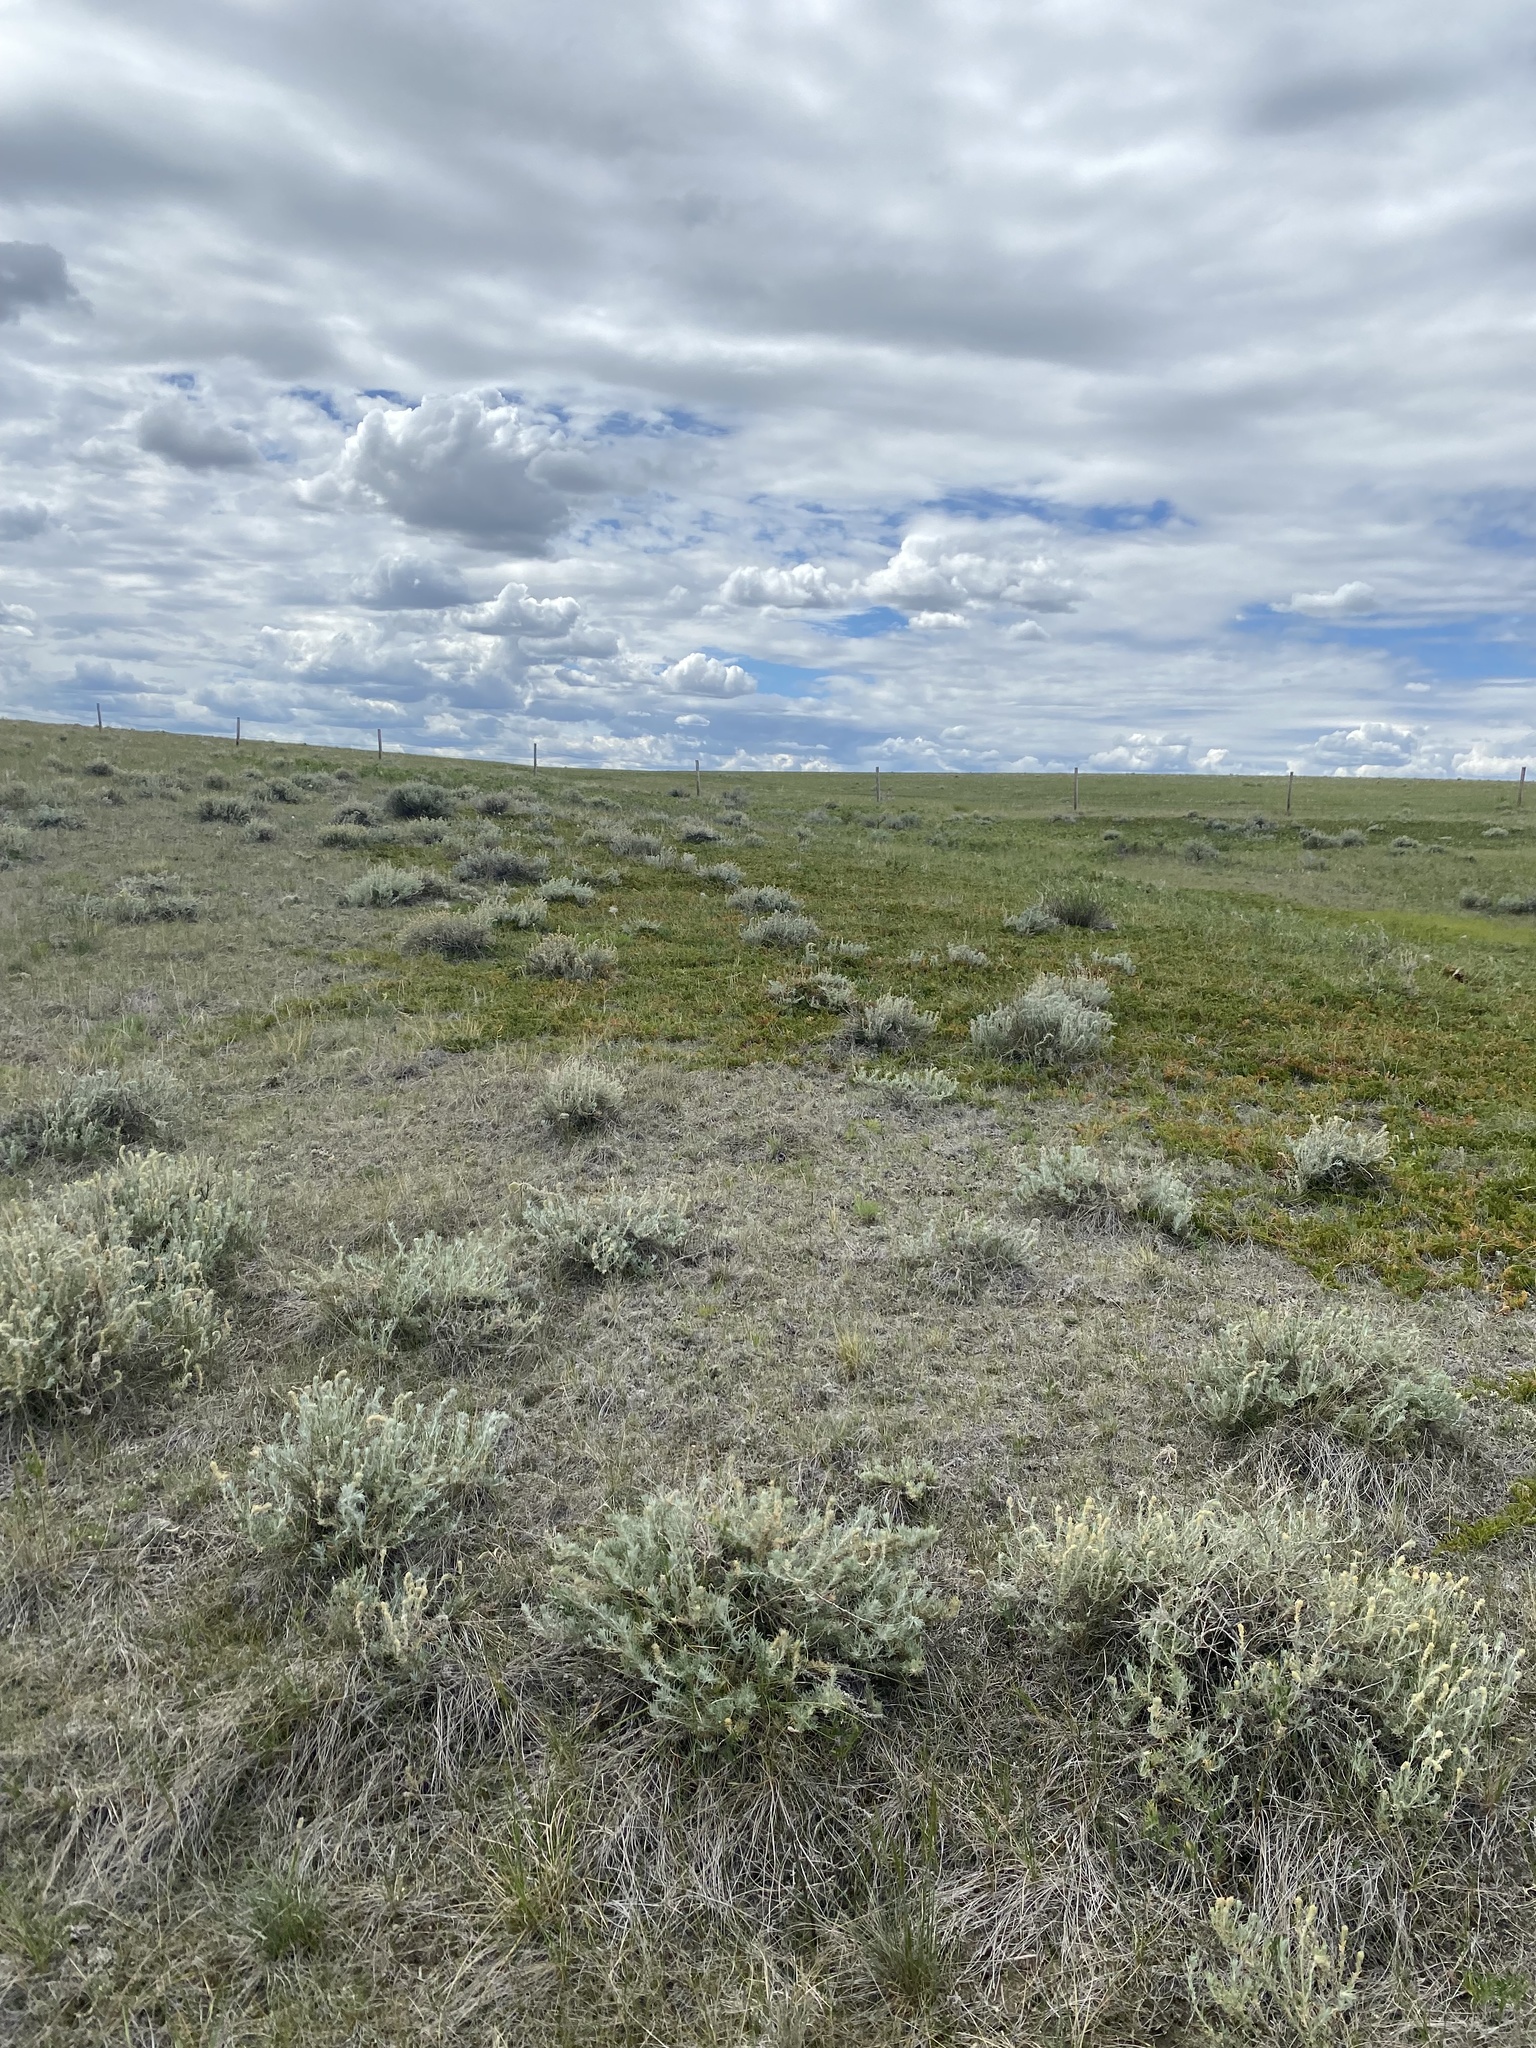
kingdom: Plantae
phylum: Tracheophyta
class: Magnoliopsida
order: Caryophyllales
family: Amaranthaceae
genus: Krascheninnikovia
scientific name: Krascheninnikovia lanata
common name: Winterfat
